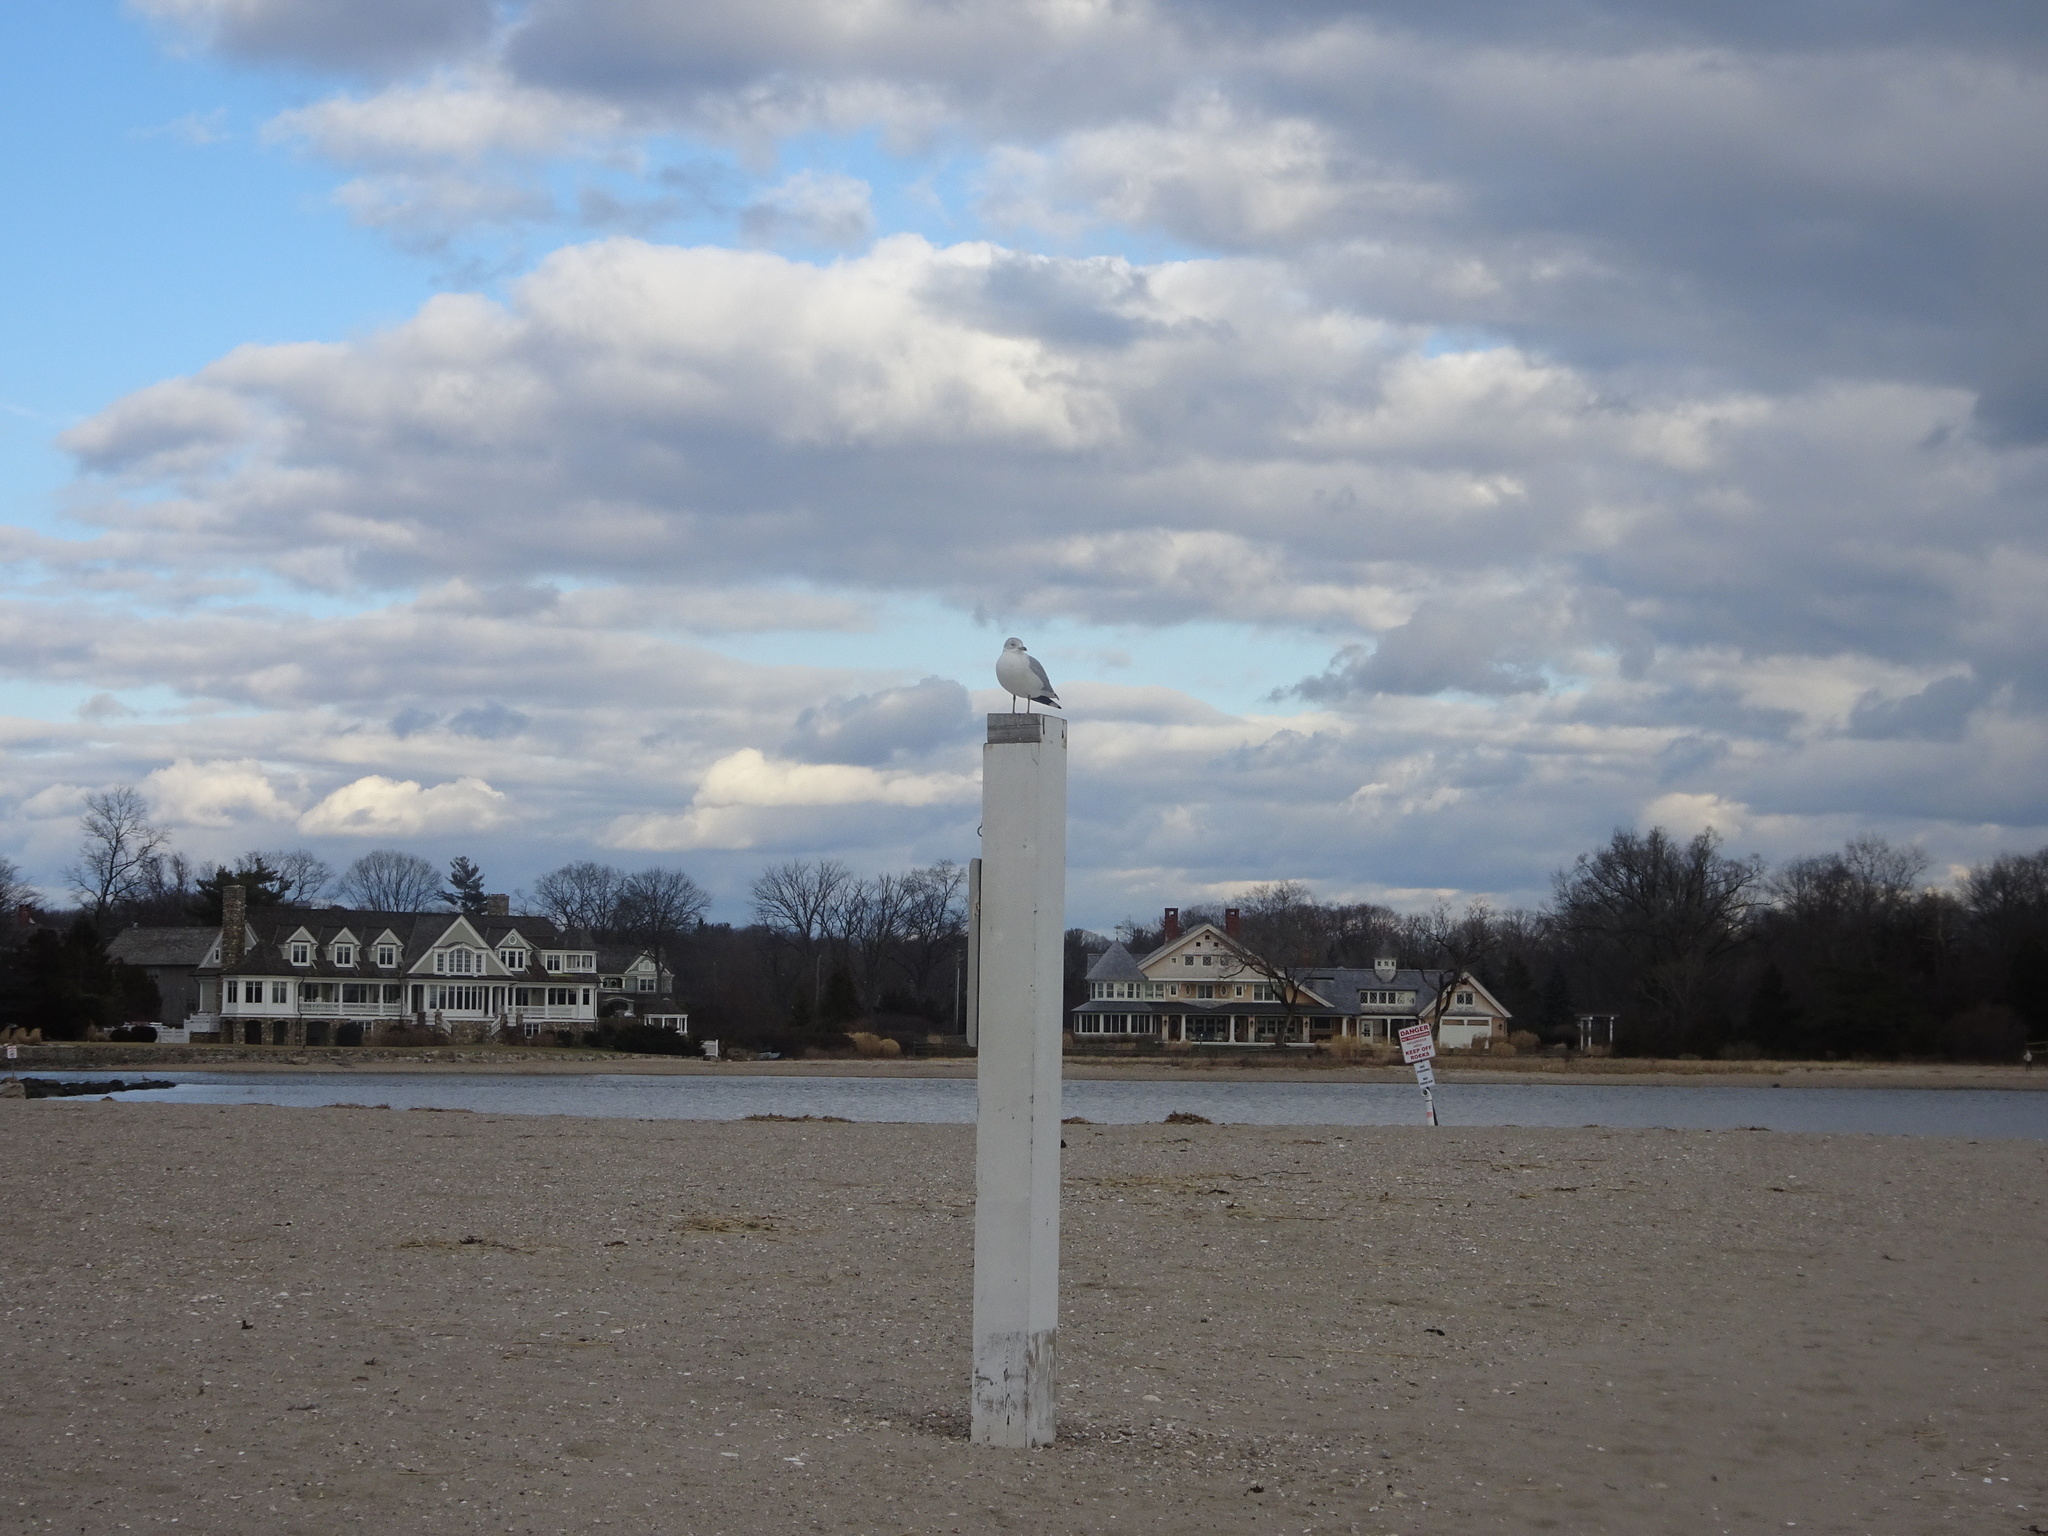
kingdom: Animalia
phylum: Chordata
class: Aves
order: Charadriiformes
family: Laridae
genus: Larus
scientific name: Larus delawarensis
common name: Ring-billed gull
